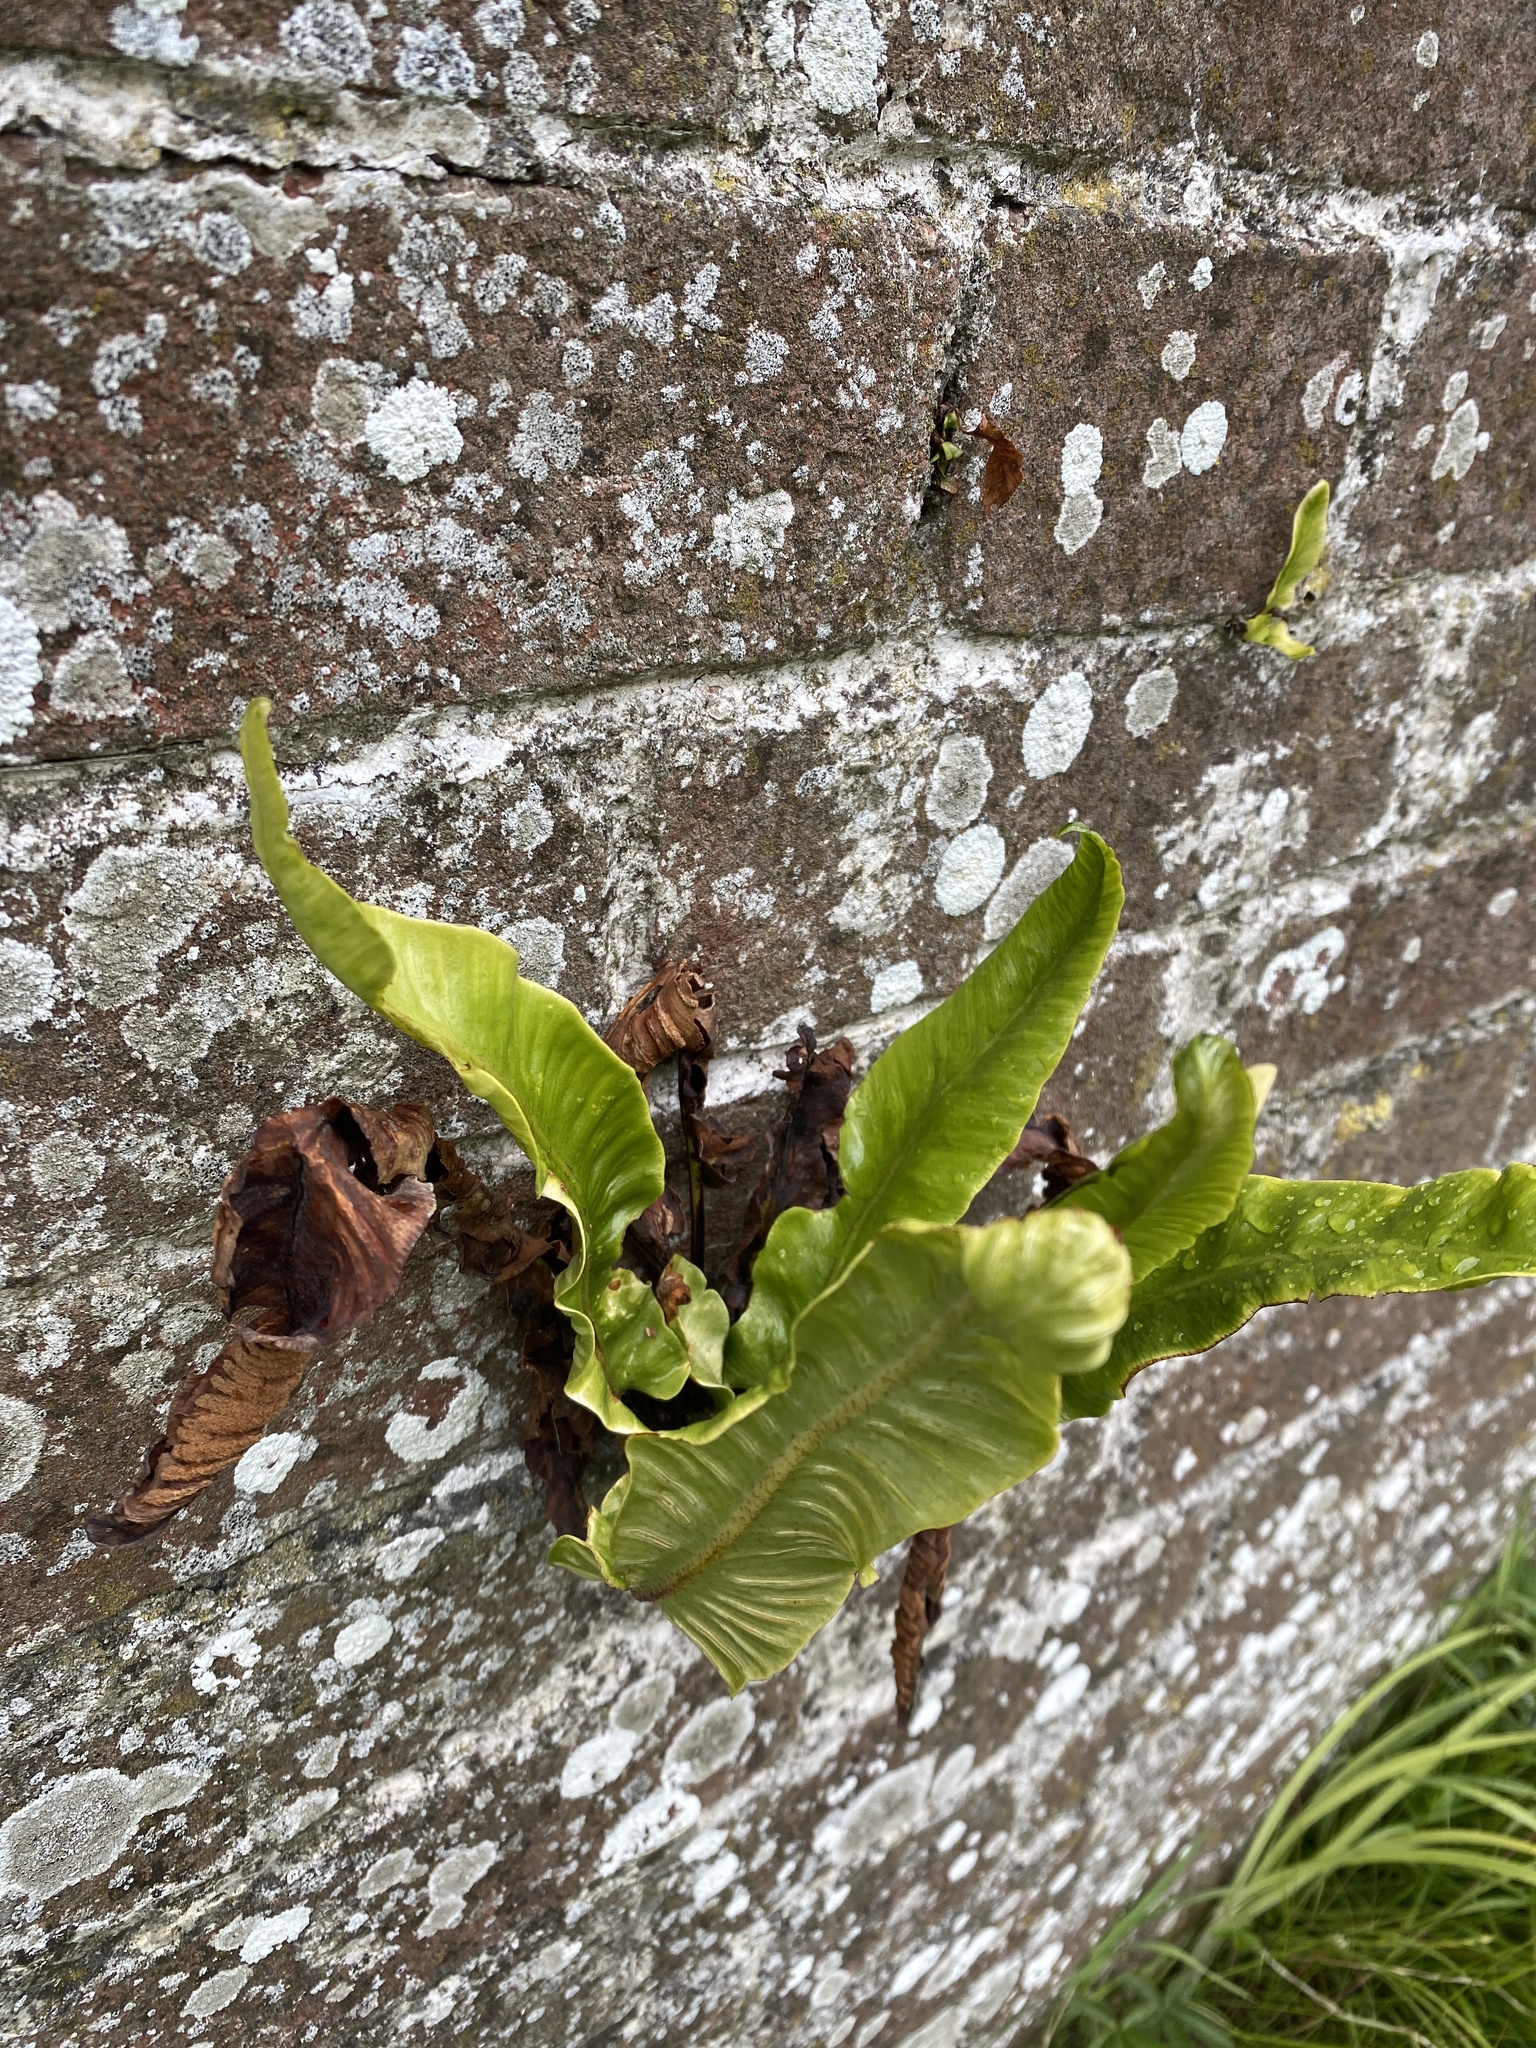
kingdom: Plantae
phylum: Tracheophyta
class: Polypodiopsida
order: Polypodiales
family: Aspleniaceae
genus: Asplenium
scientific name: Asplenium scolopendrium
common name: Hart's-tongue fern
